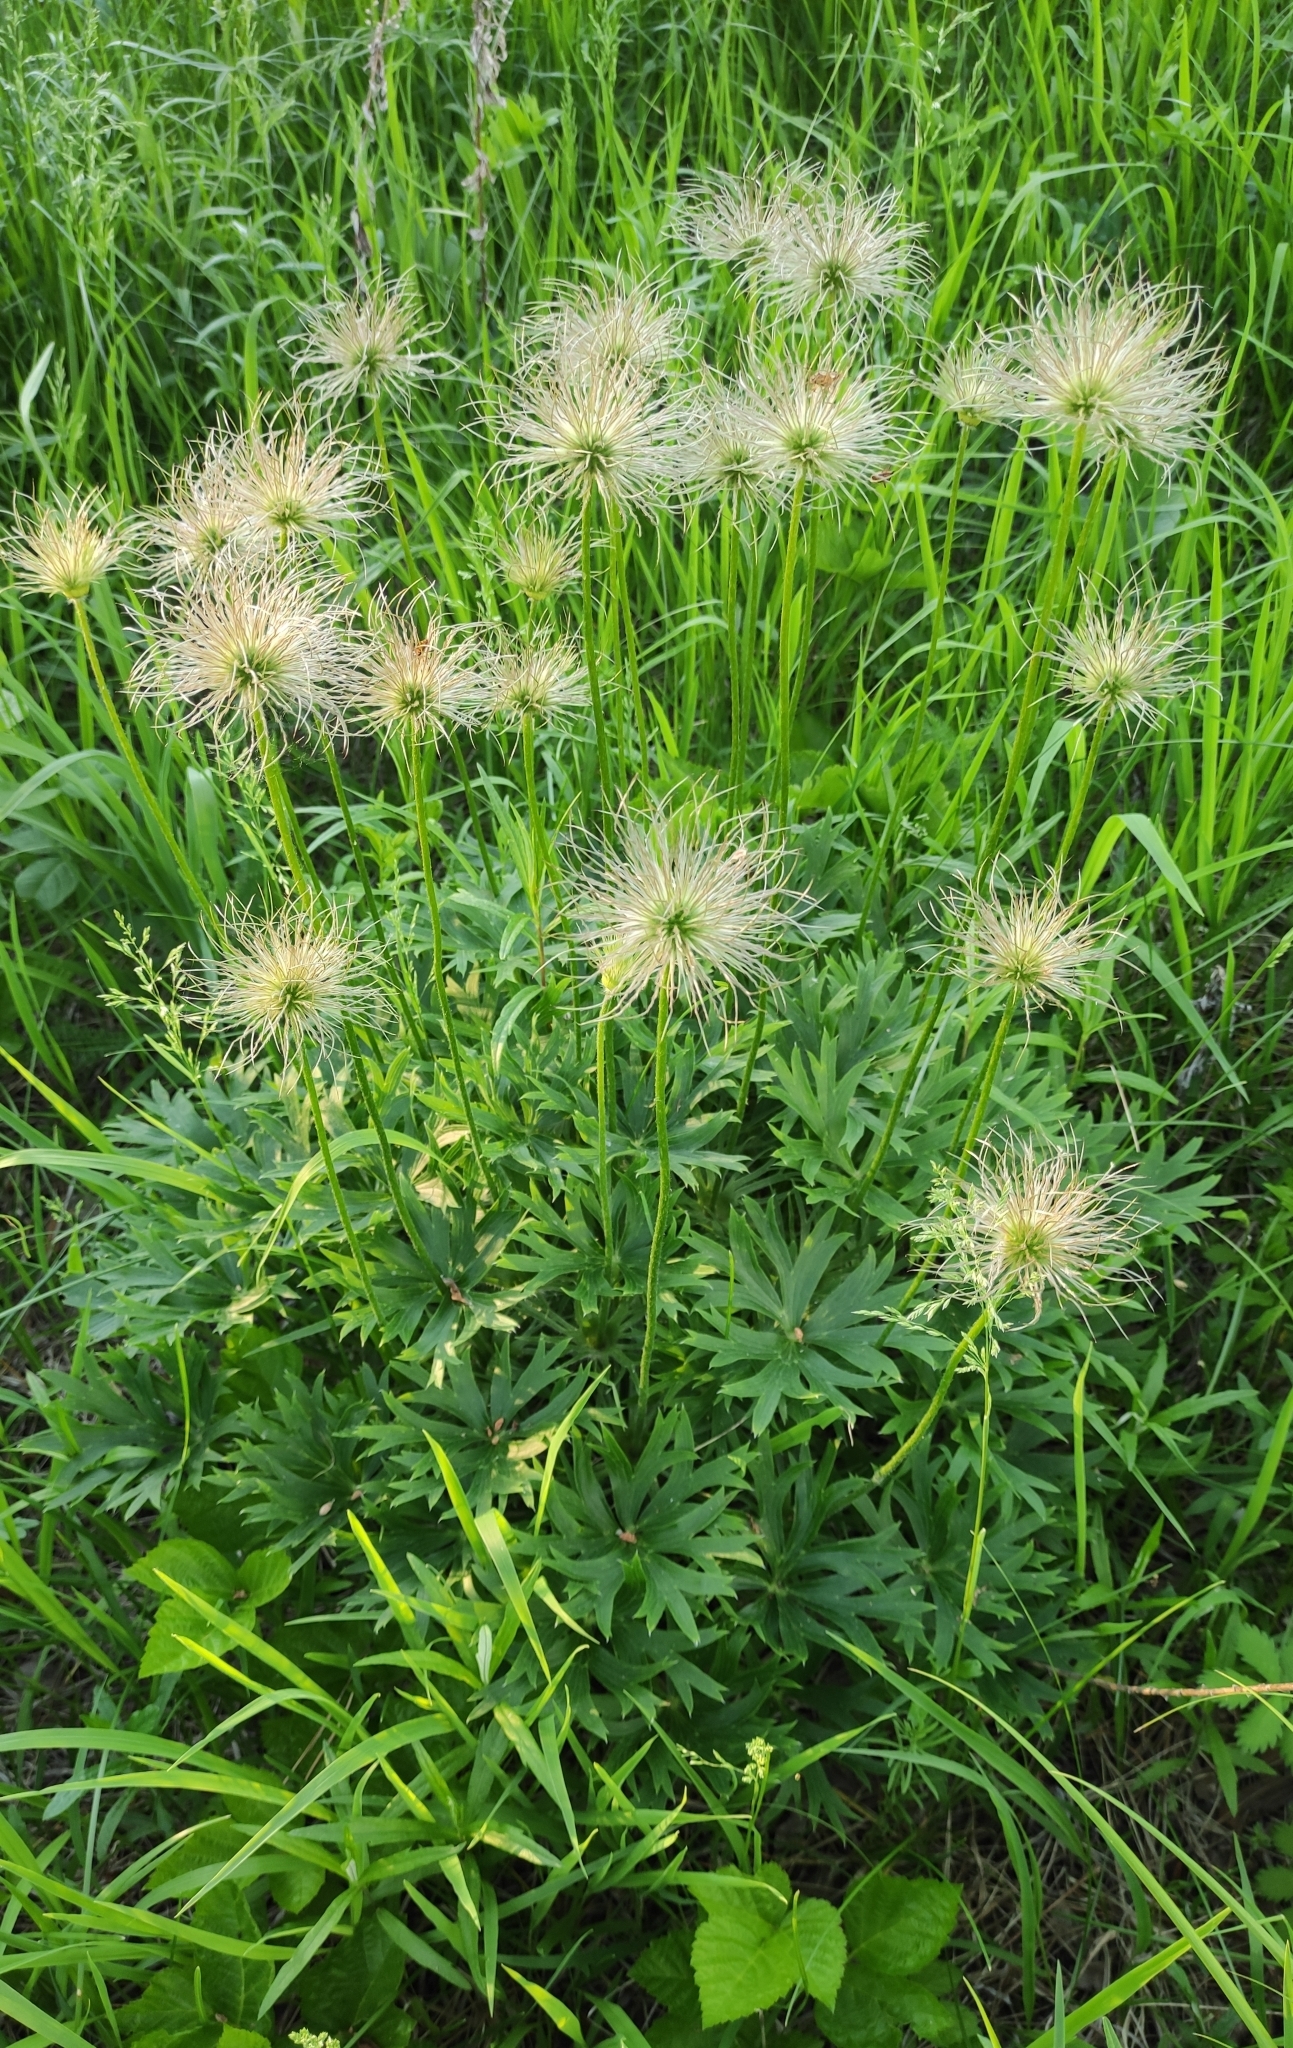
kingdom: Plantae
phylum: Tracheophyta
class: Magnoliopsida
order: Ranunculales
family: Ranunculaceae
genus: Pulsatilla
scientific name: Pulsatilla patens
